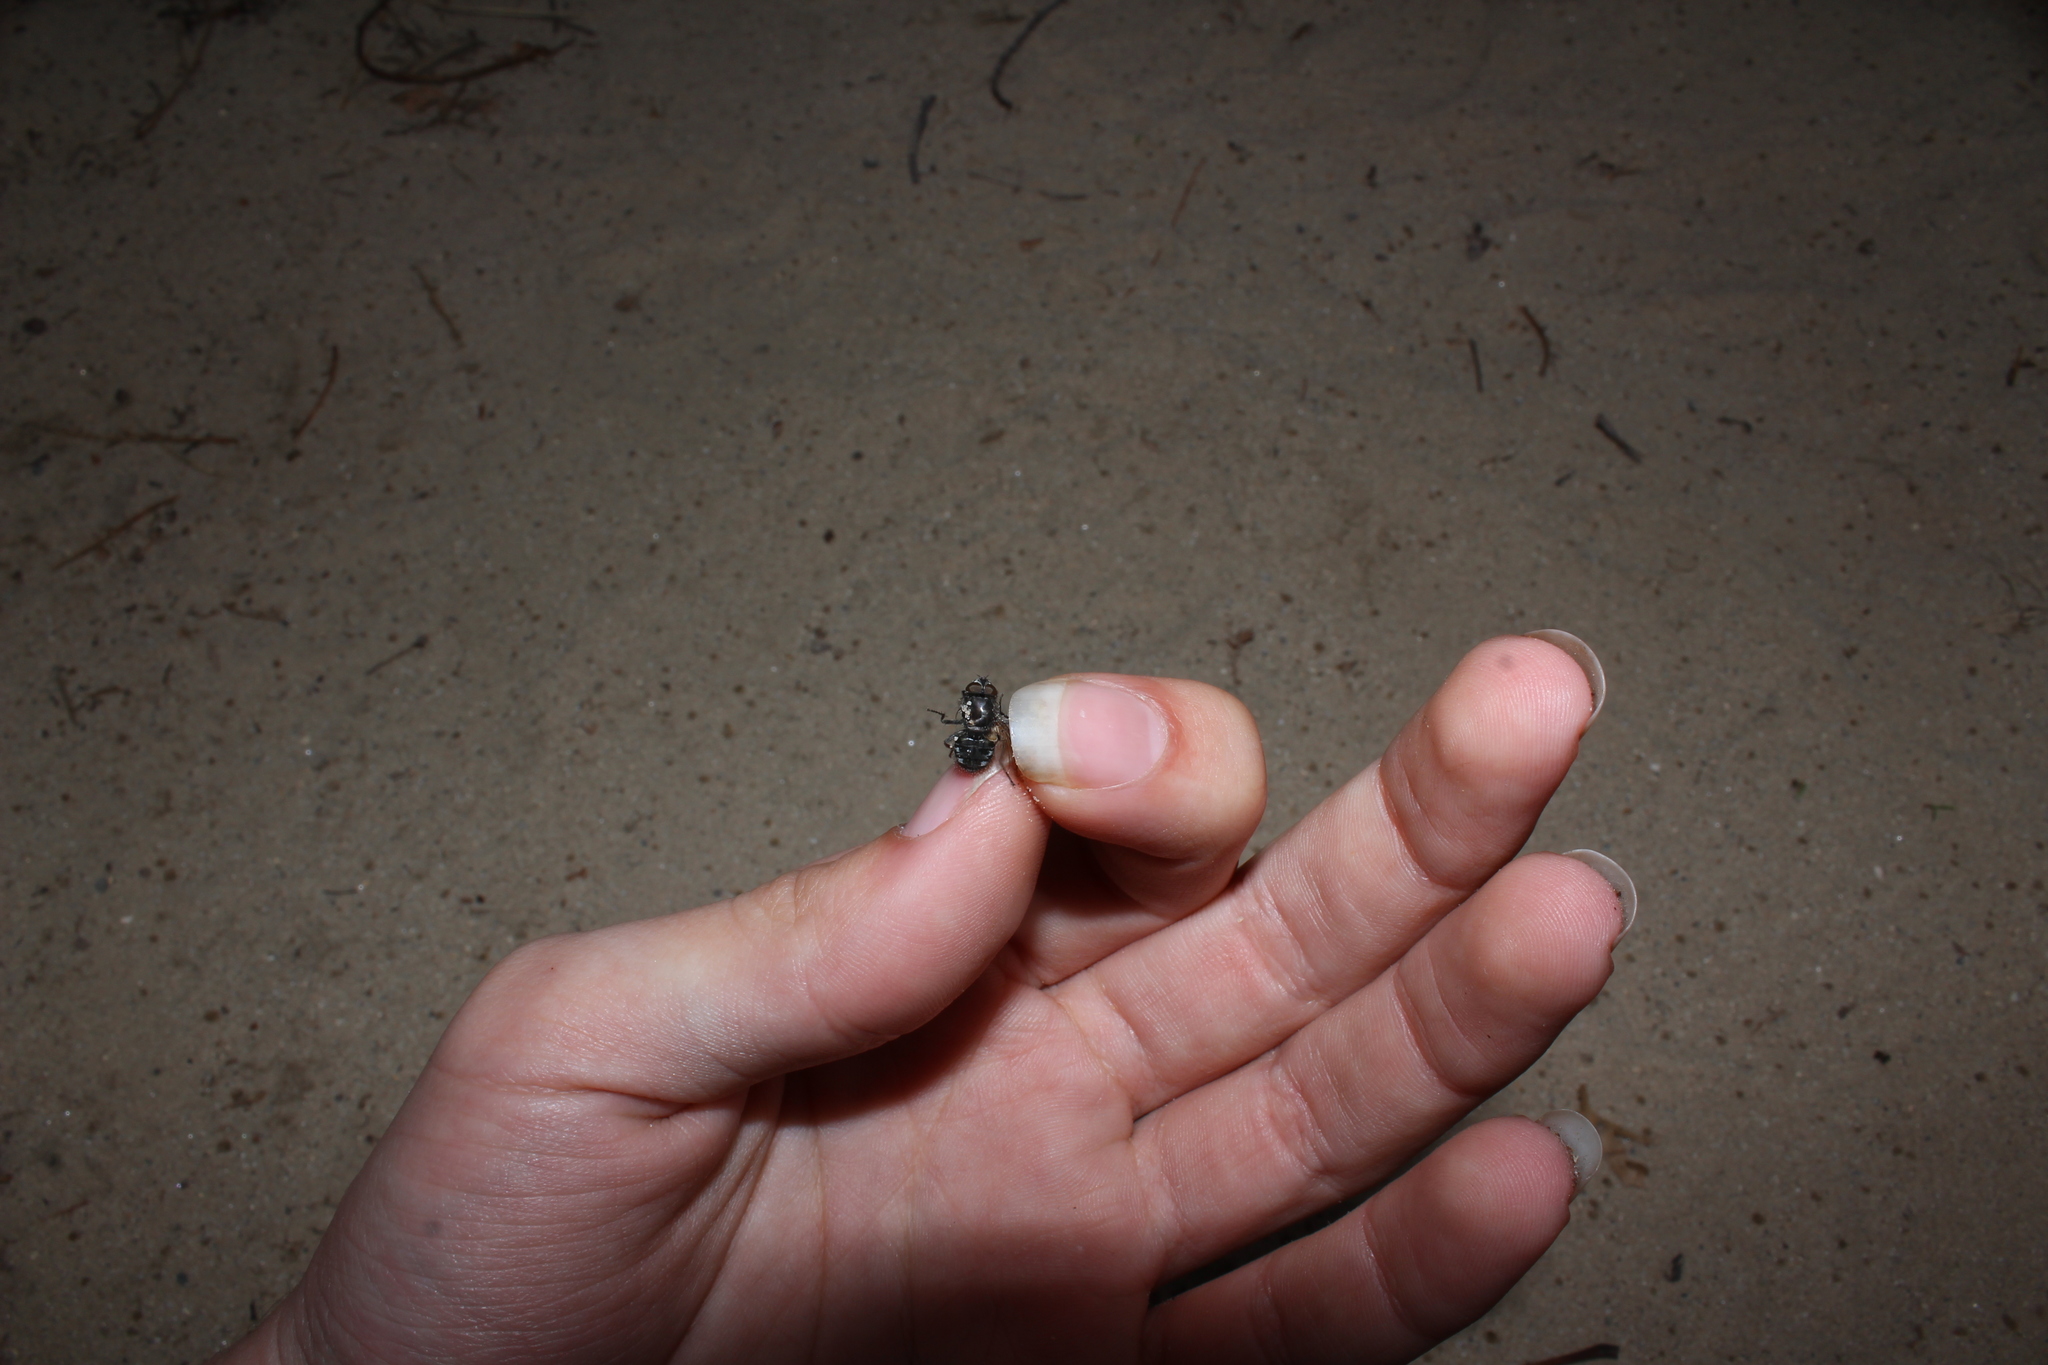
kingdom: Animalia
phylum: Arthropoda
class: Insecta
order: Diptera
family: Polleniidae
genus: Pollenia
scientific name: Pollenia
